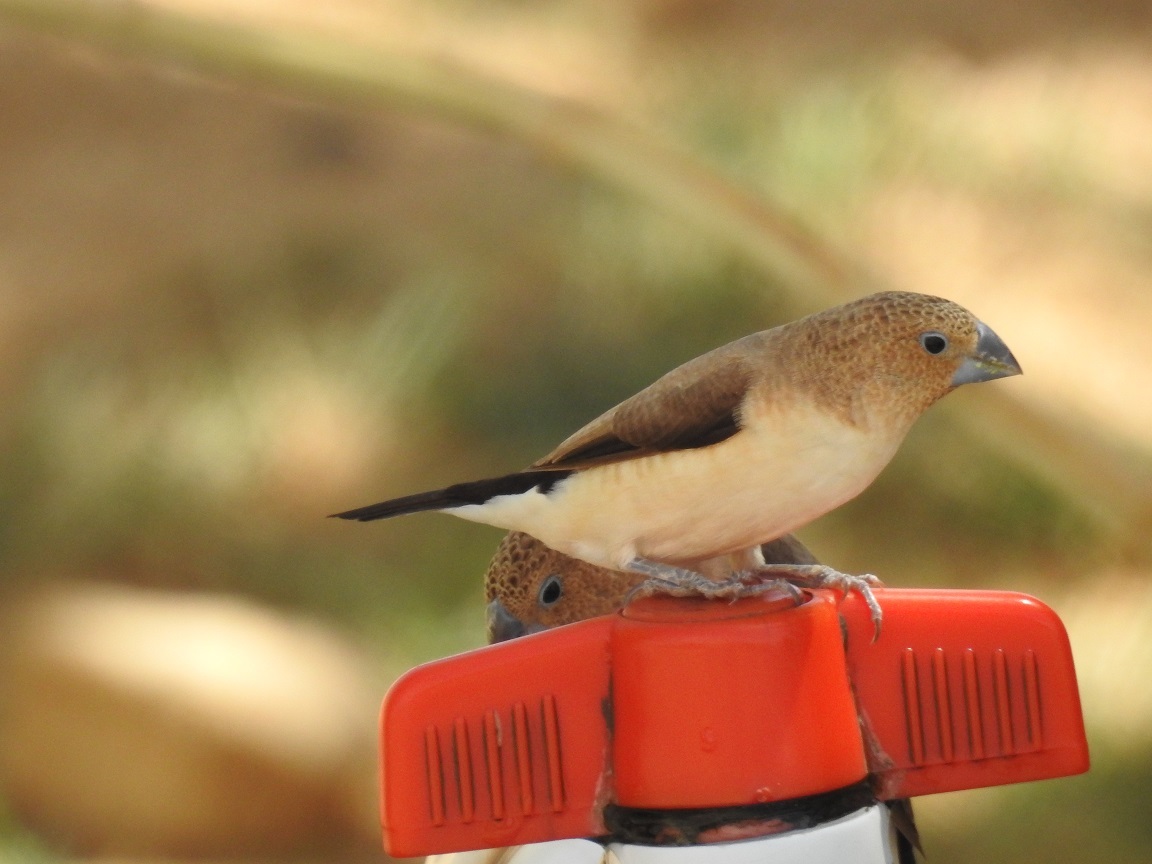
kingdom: Animalia
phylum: Chordata
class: Aves
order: Passeriformes
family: Estrildidae
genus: Euodice
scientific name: Euodice cantans
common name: African silverbill
